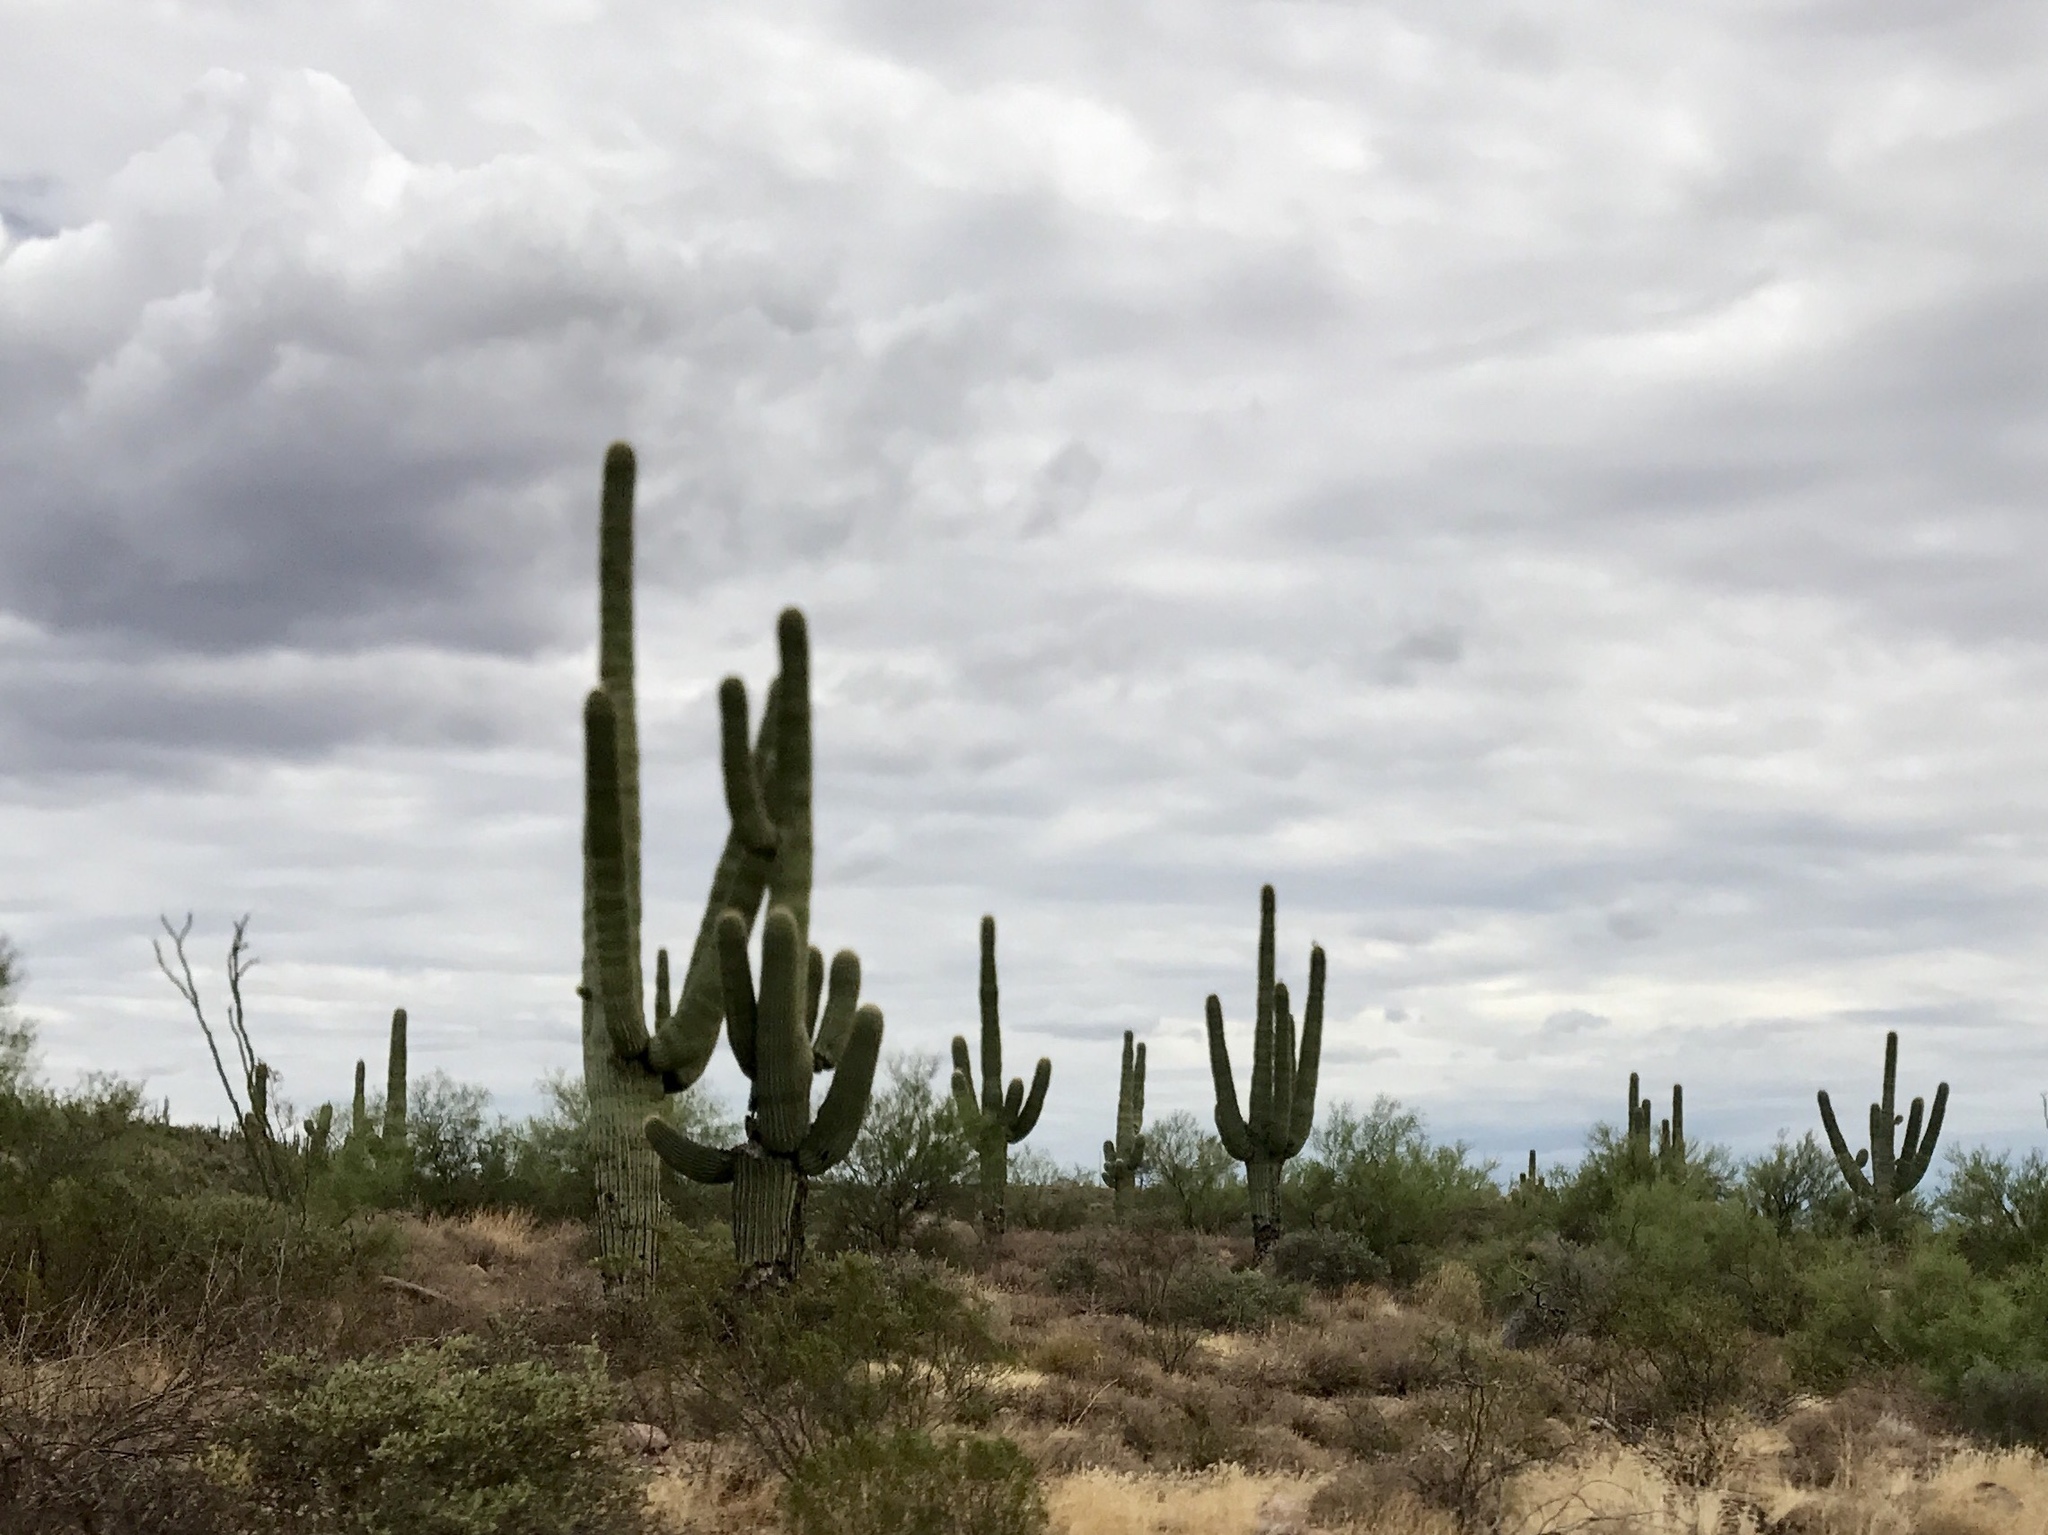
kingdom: Plantae
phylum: Tracheophyta
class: Magnoliopsida
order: Caryophyllales
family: Cactaceae
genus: Carnegiea
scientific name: Carnegiea gigantea
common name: Saguaro
